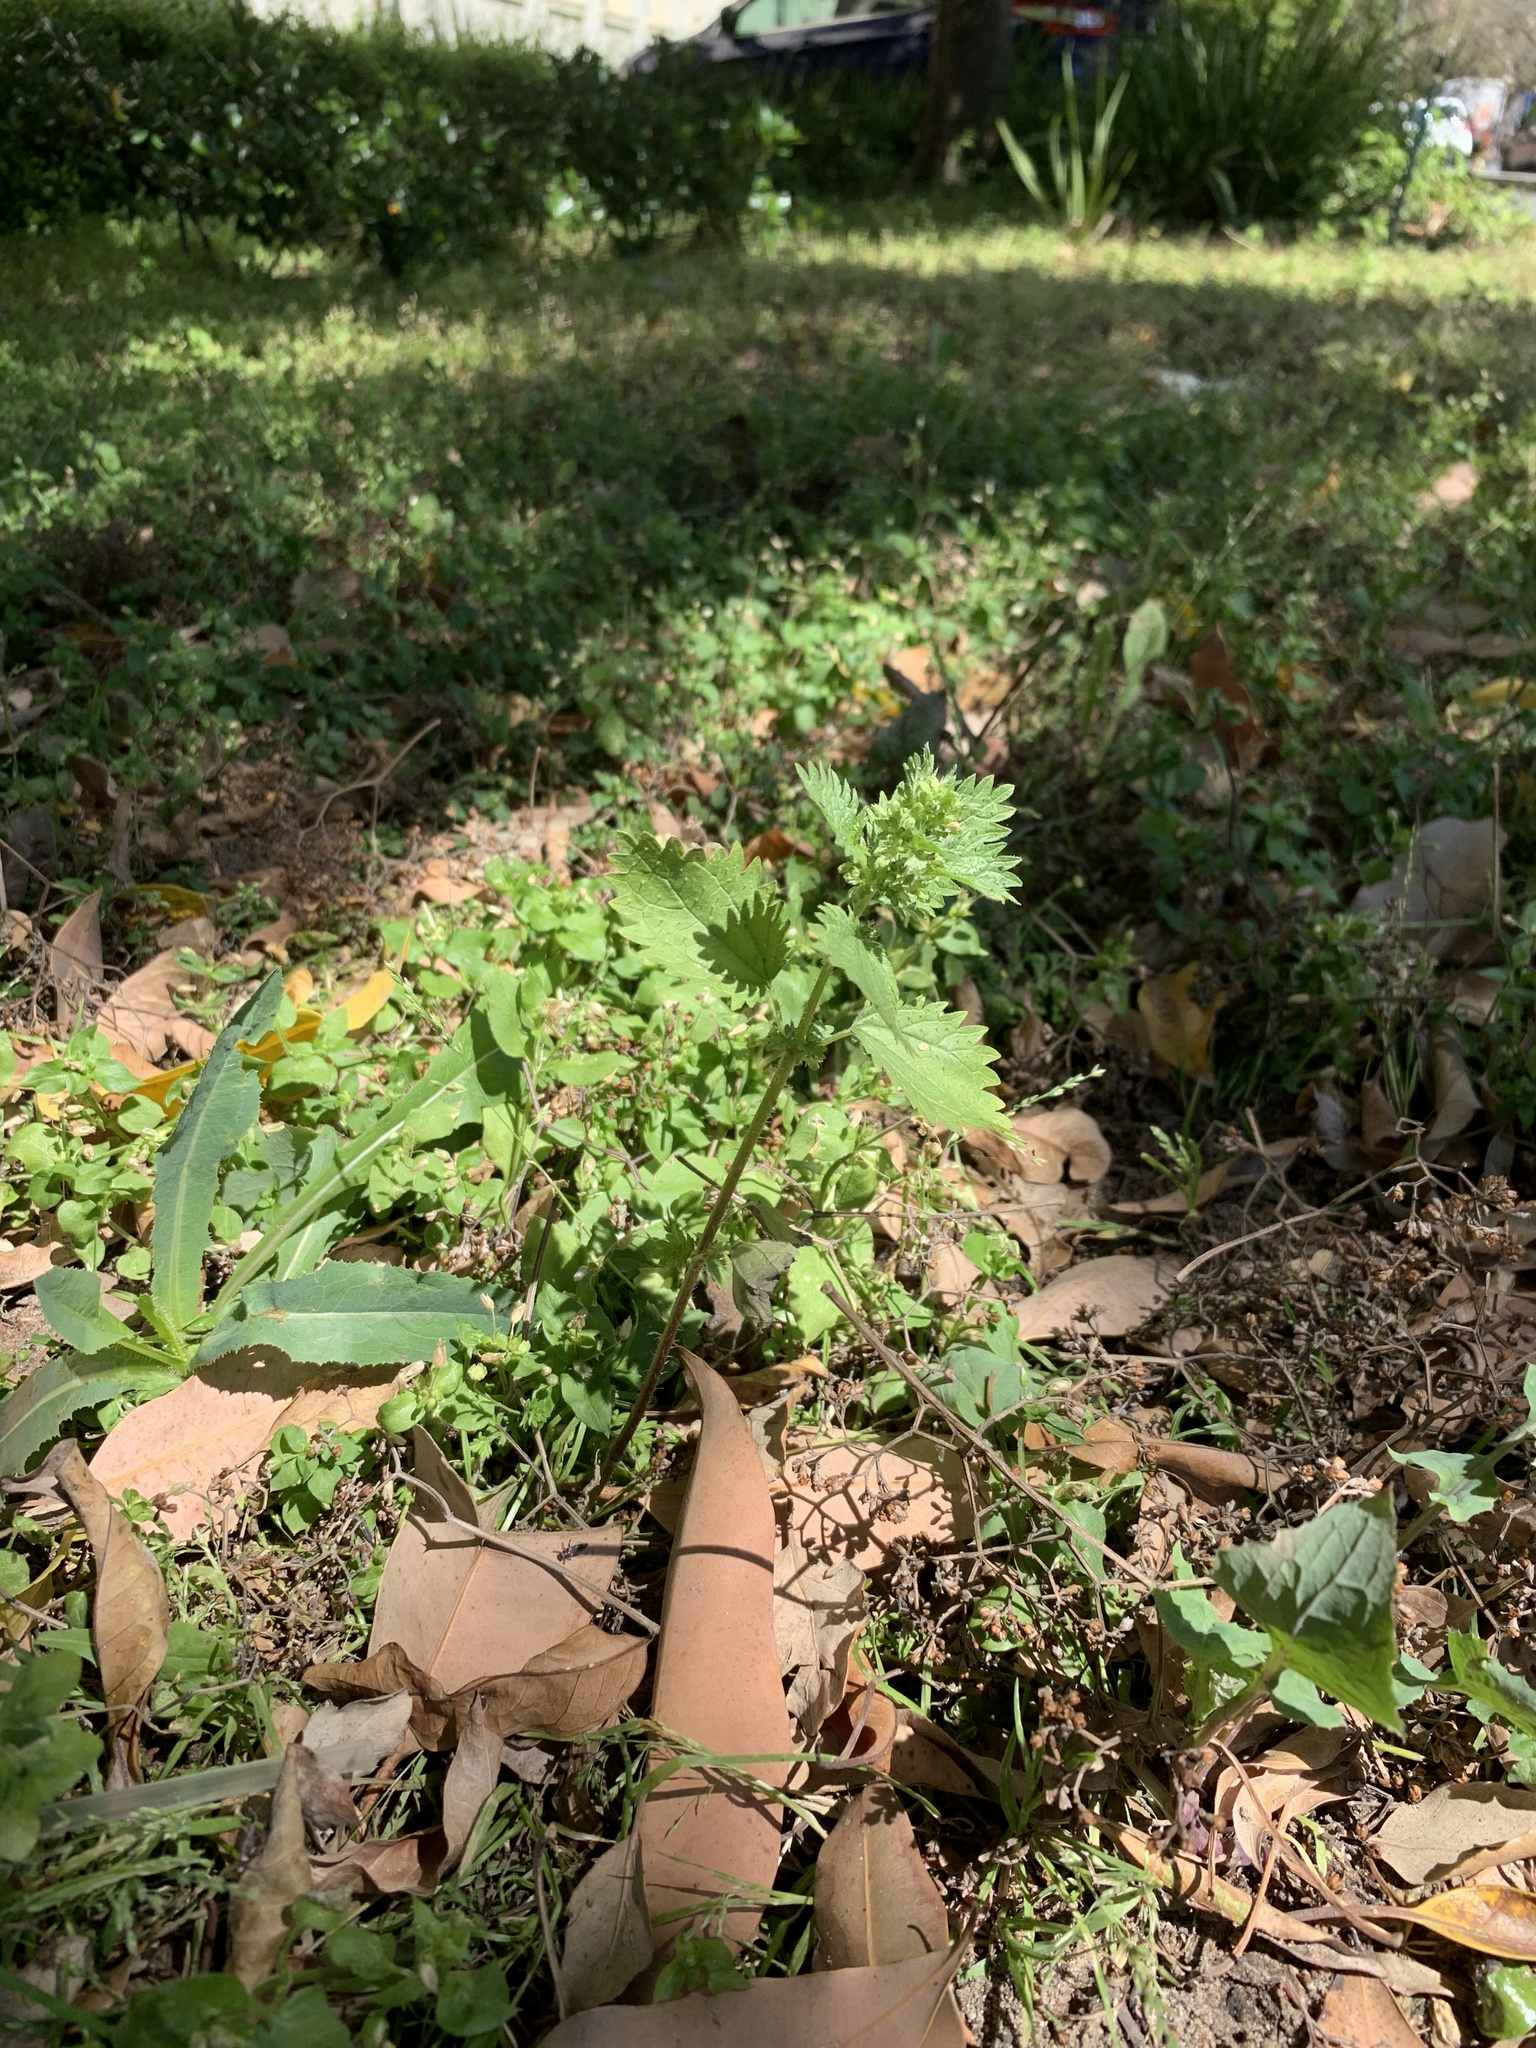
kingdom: Plantae
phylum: Tracheophyta
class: Magnoliopsida
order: Rosales
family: Urticaceae
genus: Urtica
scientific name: Urtica urens
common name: Dwarf nettle
